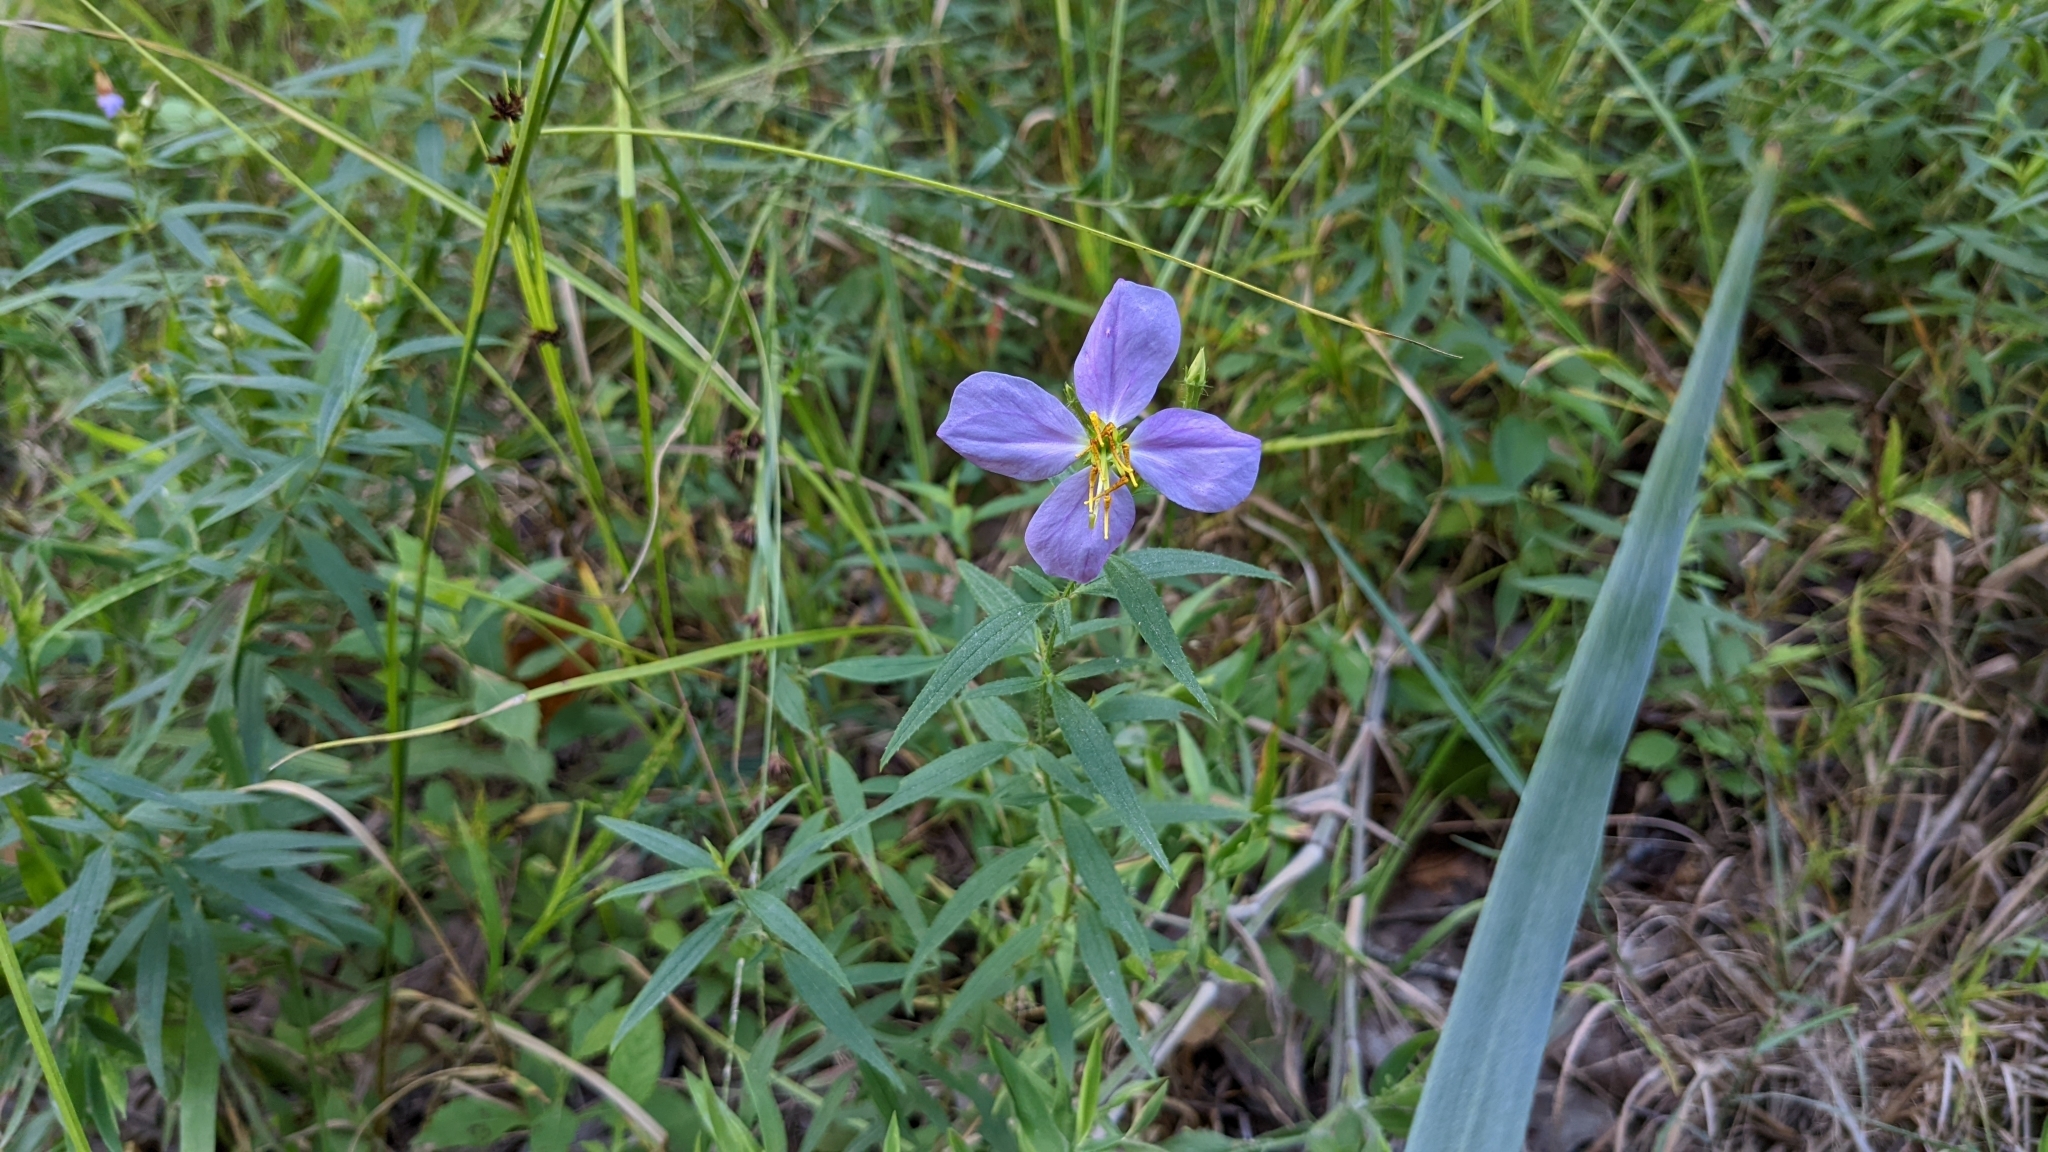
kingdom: Plantae
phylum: Tracheophyta
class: Magnoliopsida
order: Myrtales
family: Melastomataceae
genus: Rhexia
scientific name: Rhexia mariana
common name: Dull meadow-pitcher
